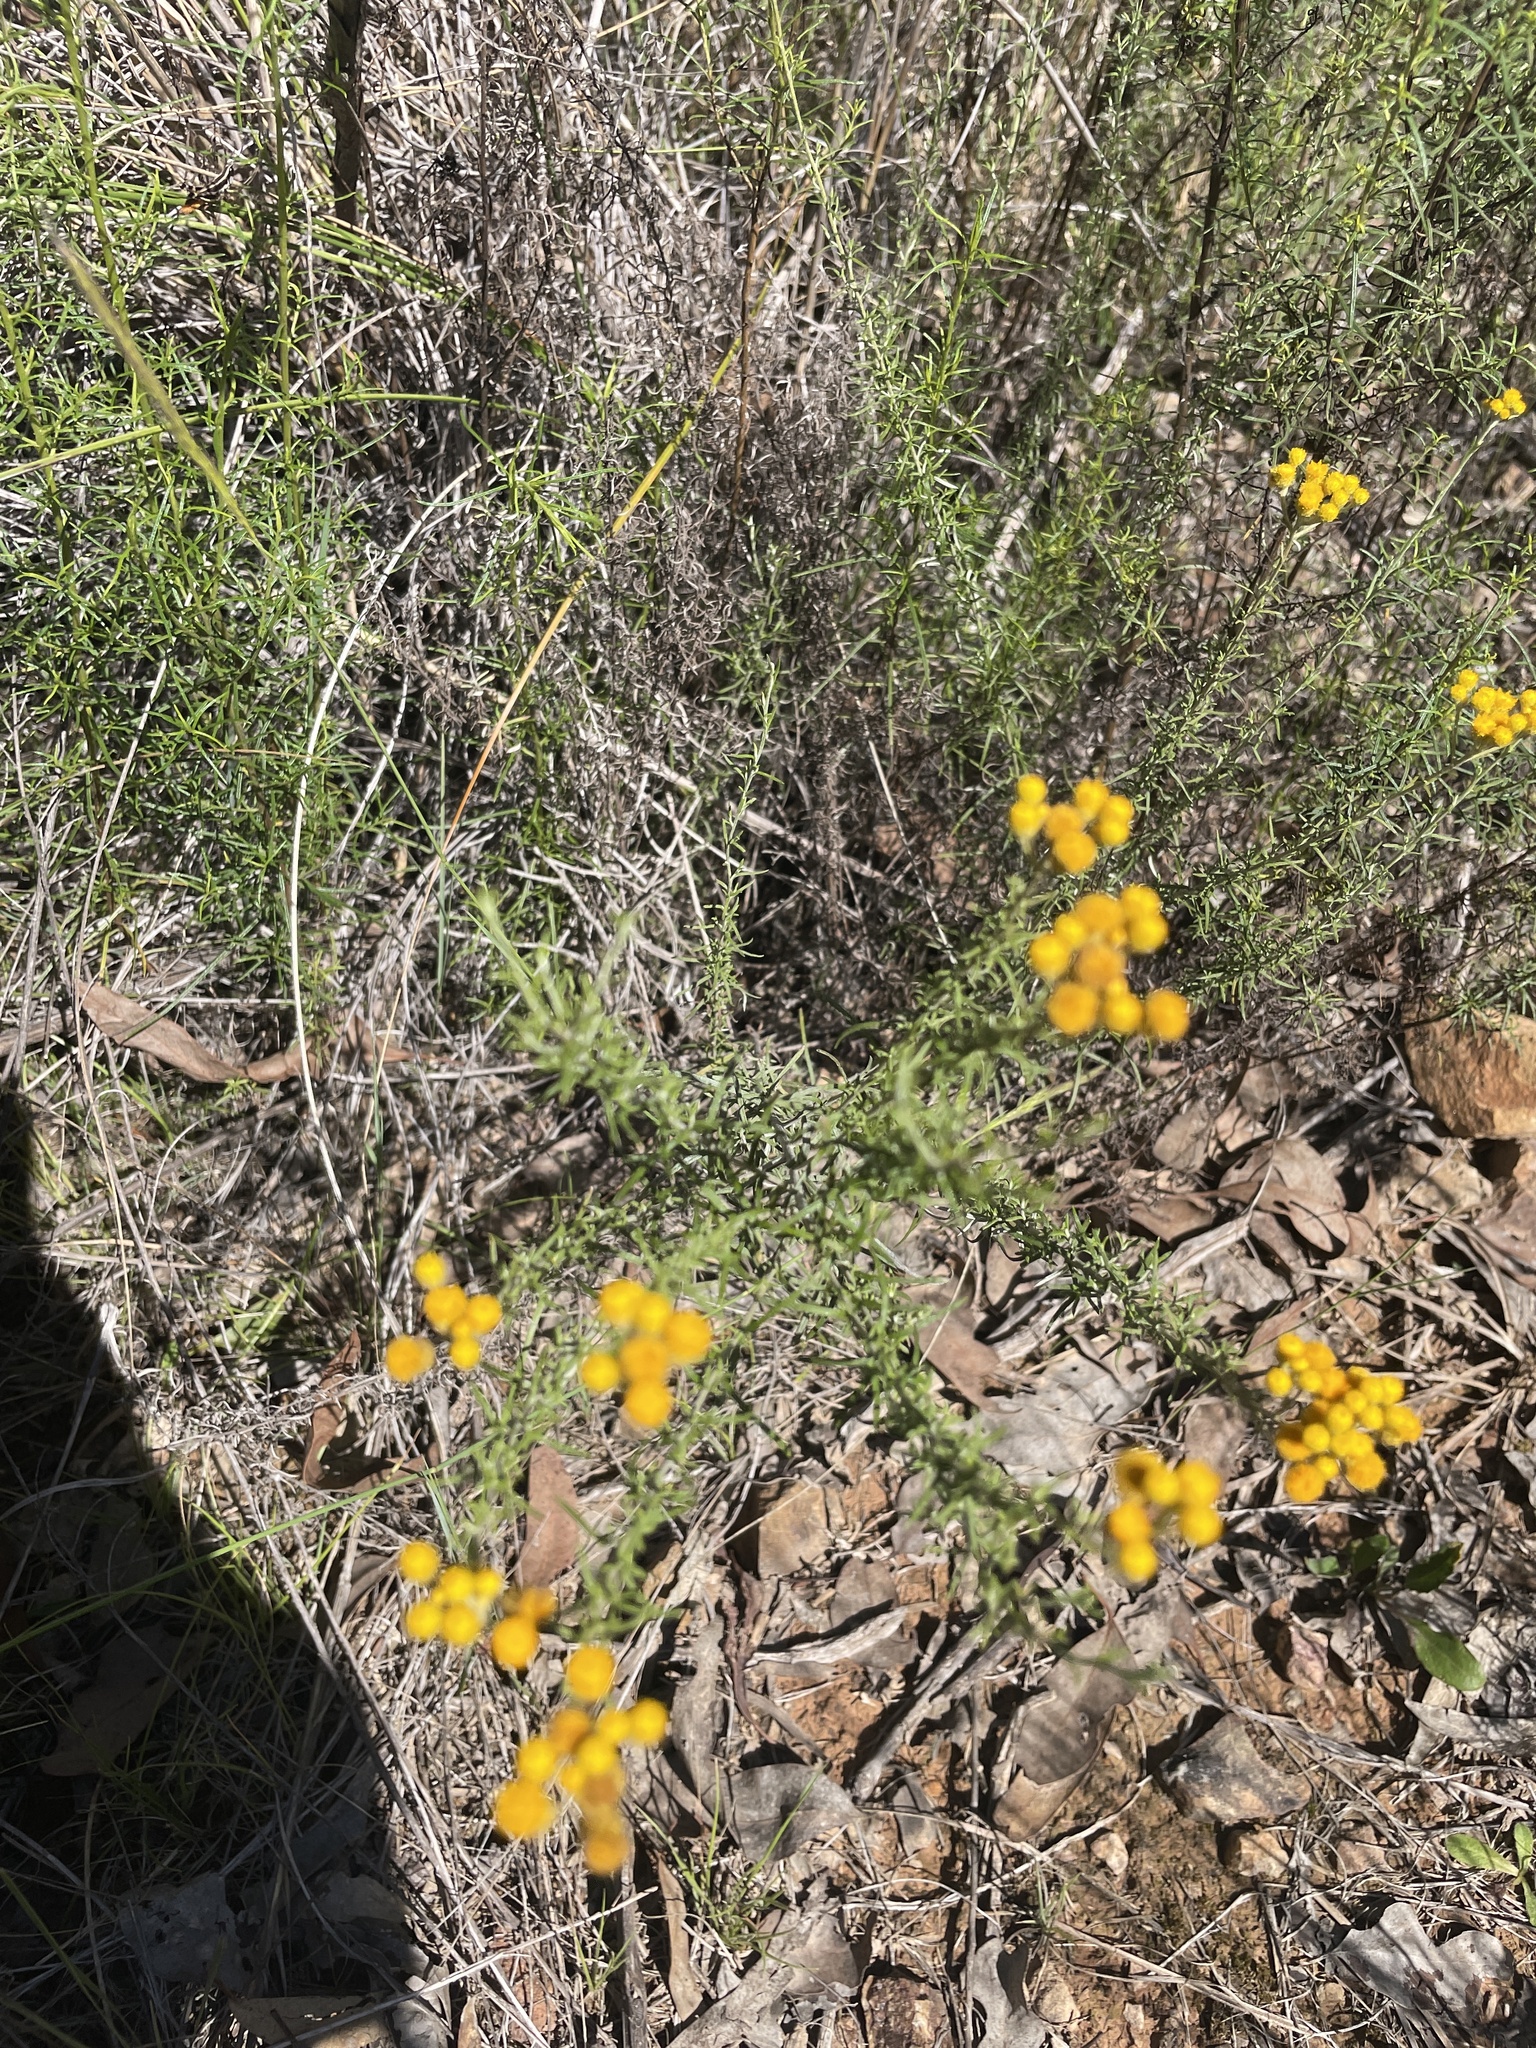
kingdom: Plantae
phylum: Tracheophyta
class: Magnoliopsida
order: Asterales
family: Asteraceae
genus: Chrysocephalum
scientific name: Chrysocephalum semipapposum
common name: Clustered everlasting
